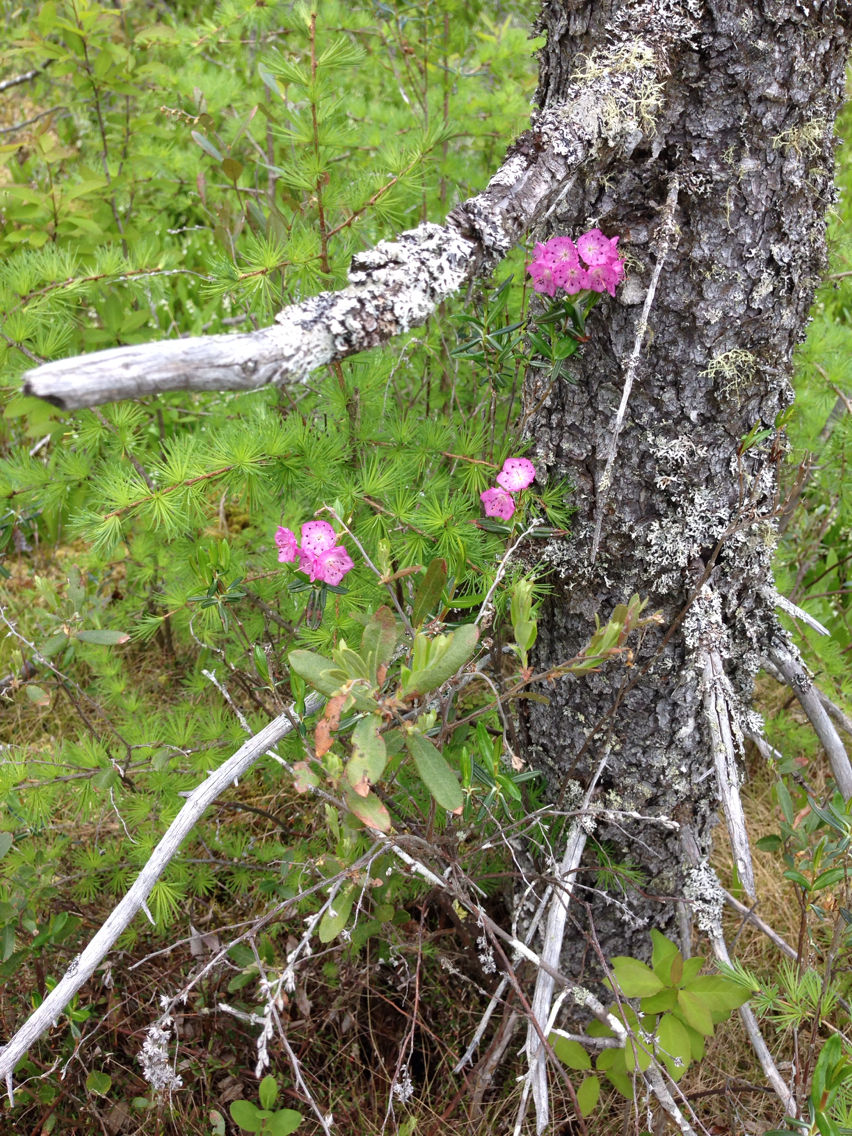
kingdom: Plantae
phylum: Tracheophyta
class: Magnoliopsida
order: Ericales
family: Ericaceae
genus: Kalmia
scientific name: Kalmia polifolia
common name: Bog-laurel
